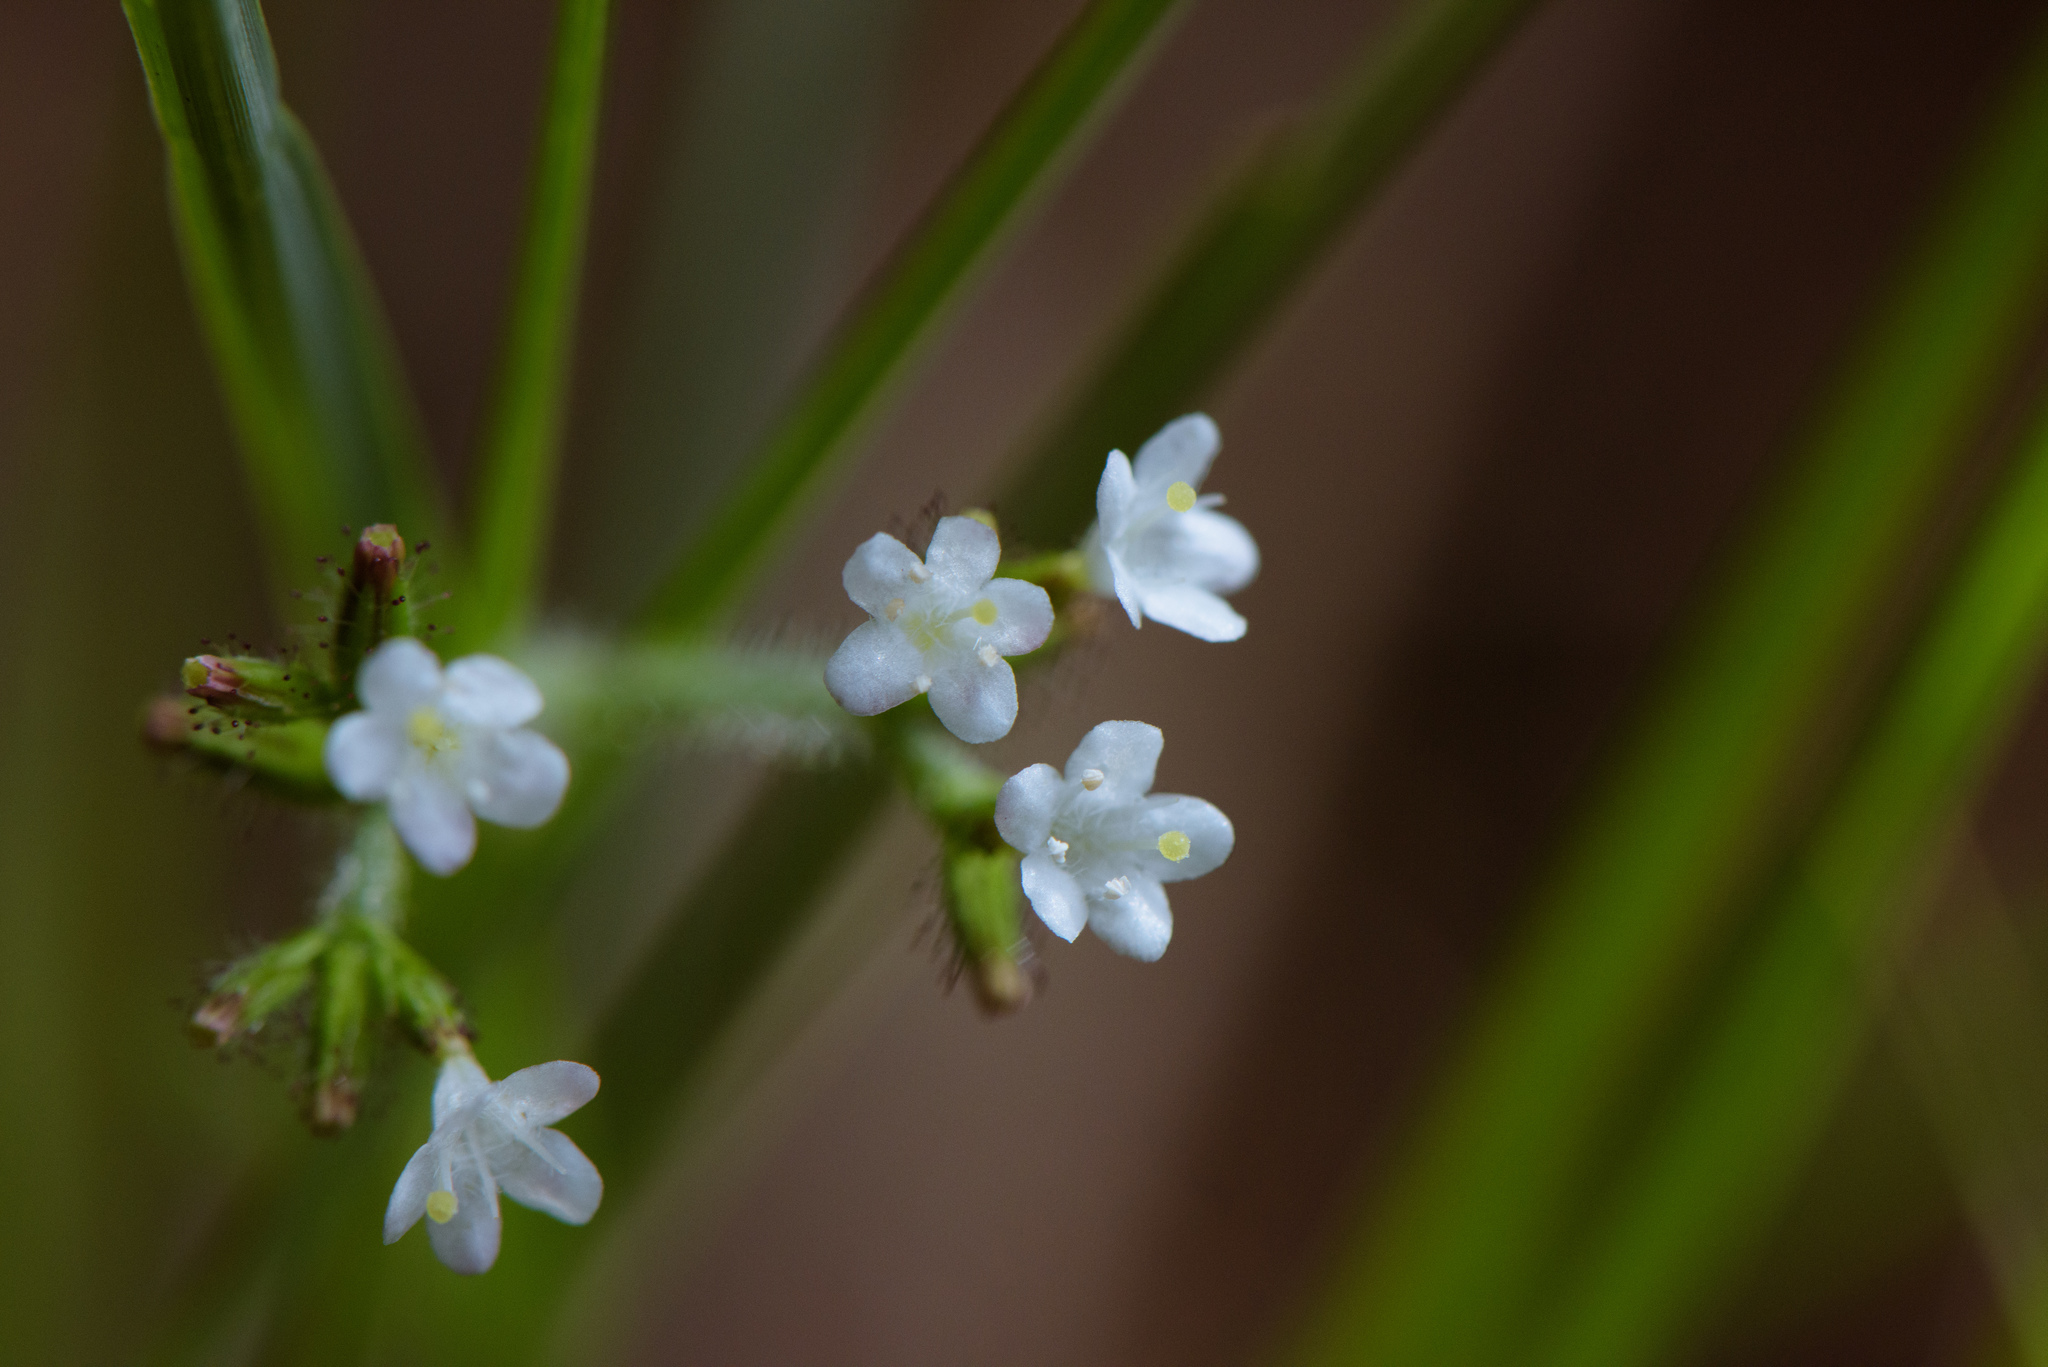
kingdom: Plantae
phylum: Tracheophyta
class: Magnoliopsida
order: Dipsacales
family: Caprifoliaceae
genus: Triplostegia
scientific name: Triplostegia glandulifera
